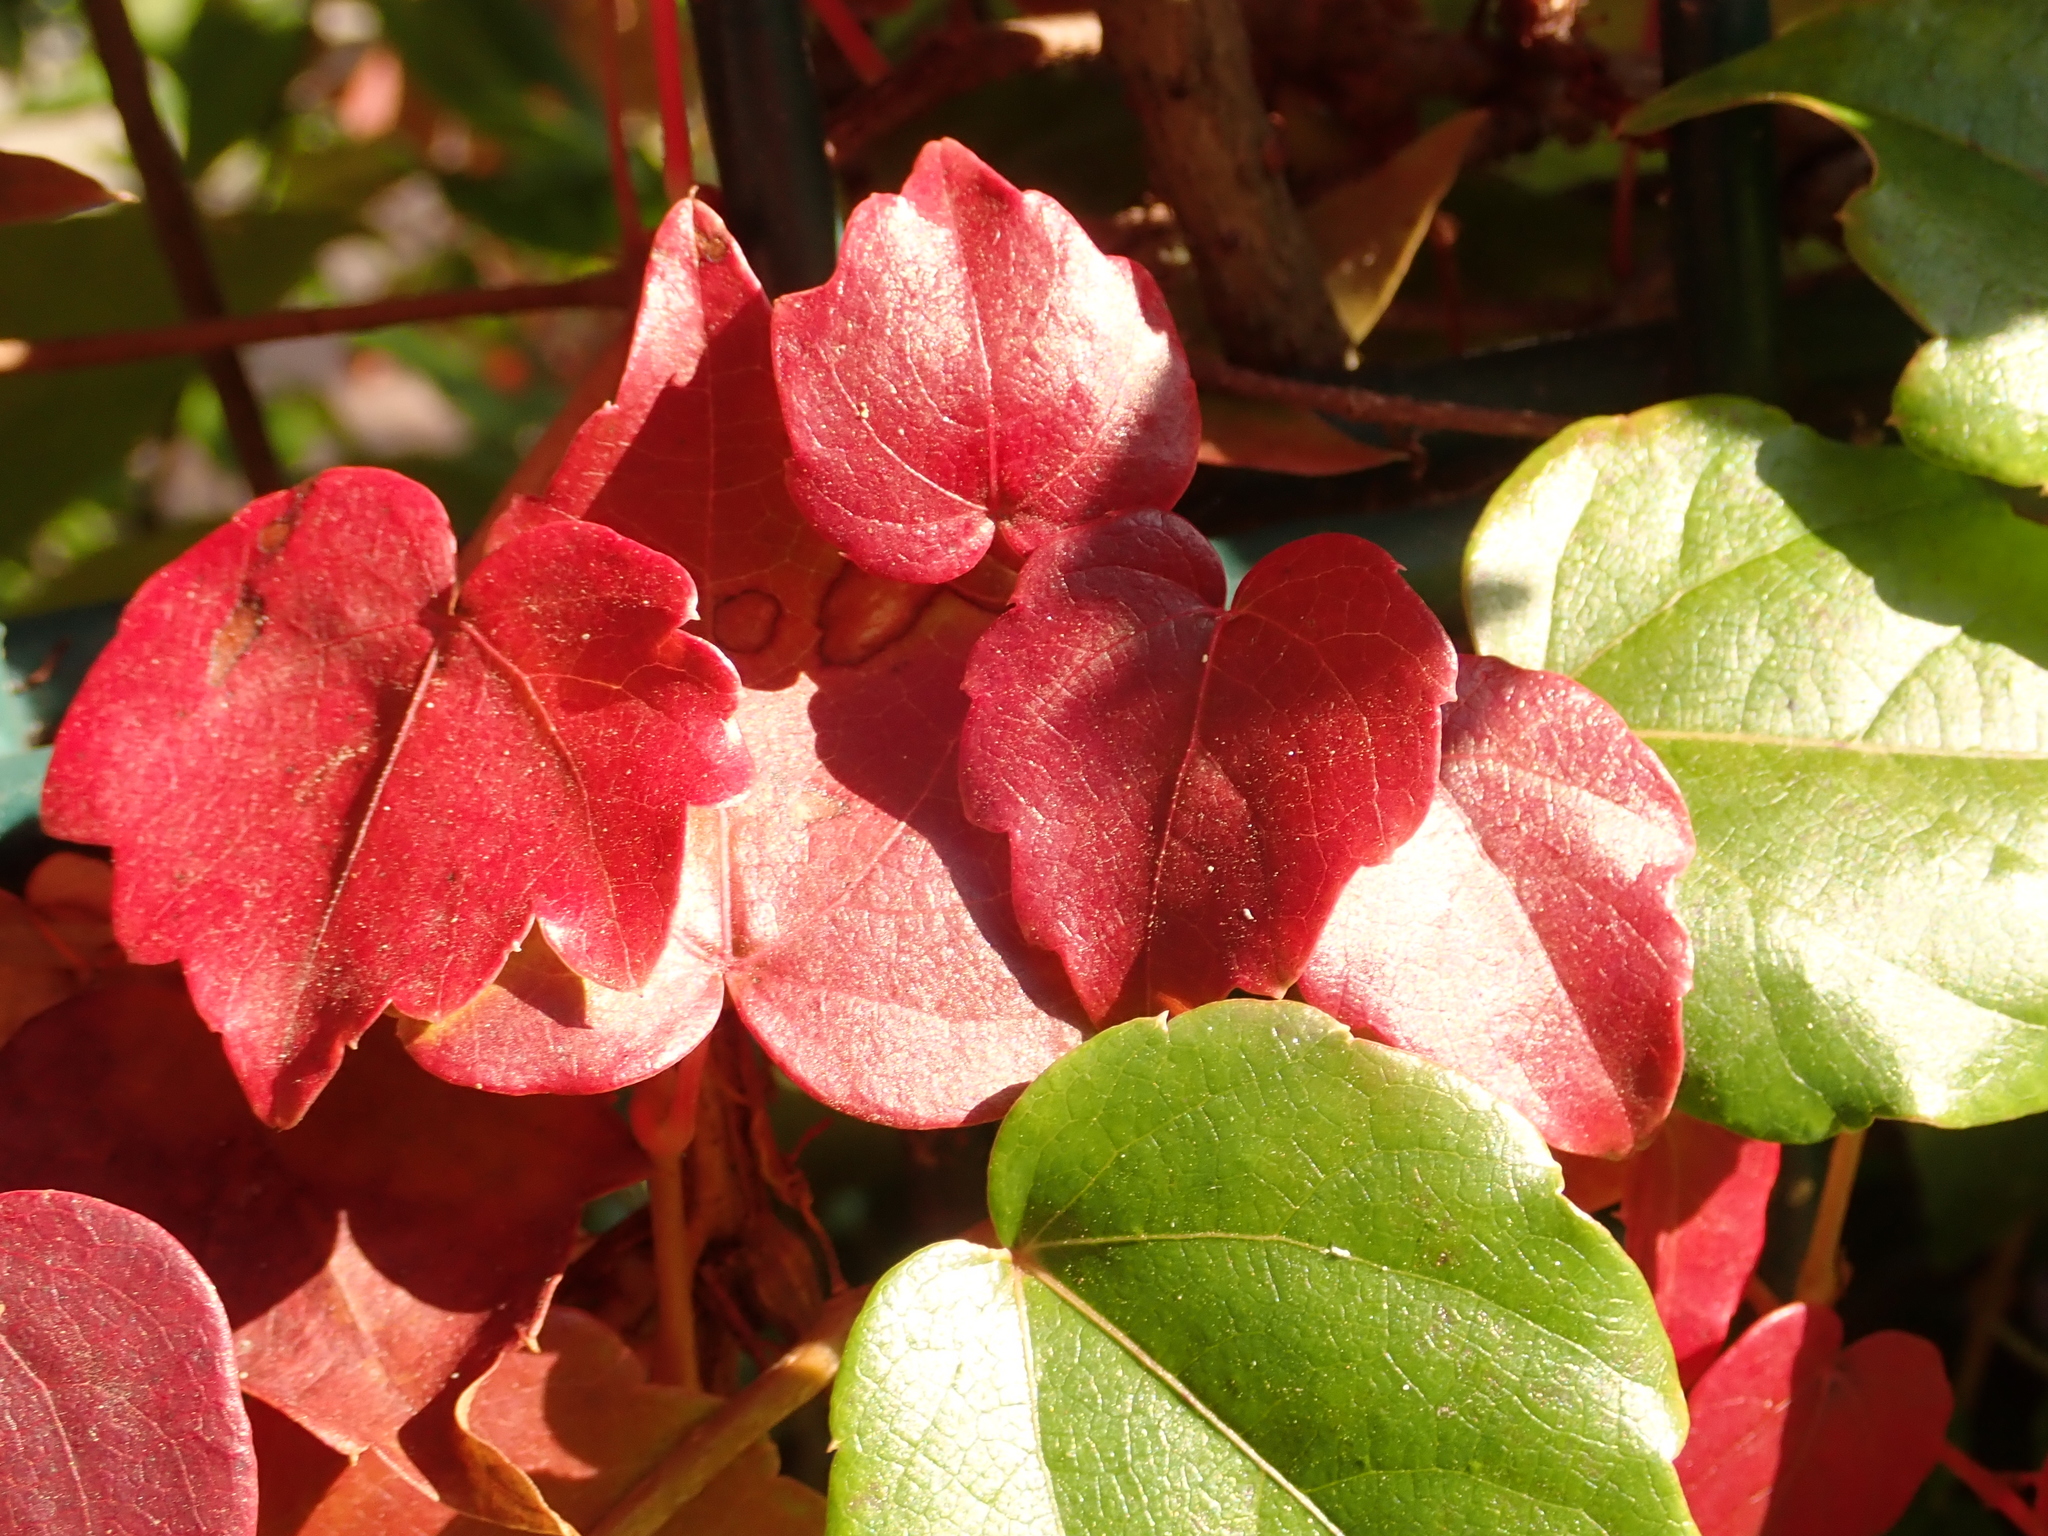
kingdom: Plantae
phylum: Tracheophyta
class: Magnoliopsida
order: Vitales
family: Vitaceae
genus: Parthenocissus
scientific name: Parthenocissus tricuspidata
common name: Boston ivy
